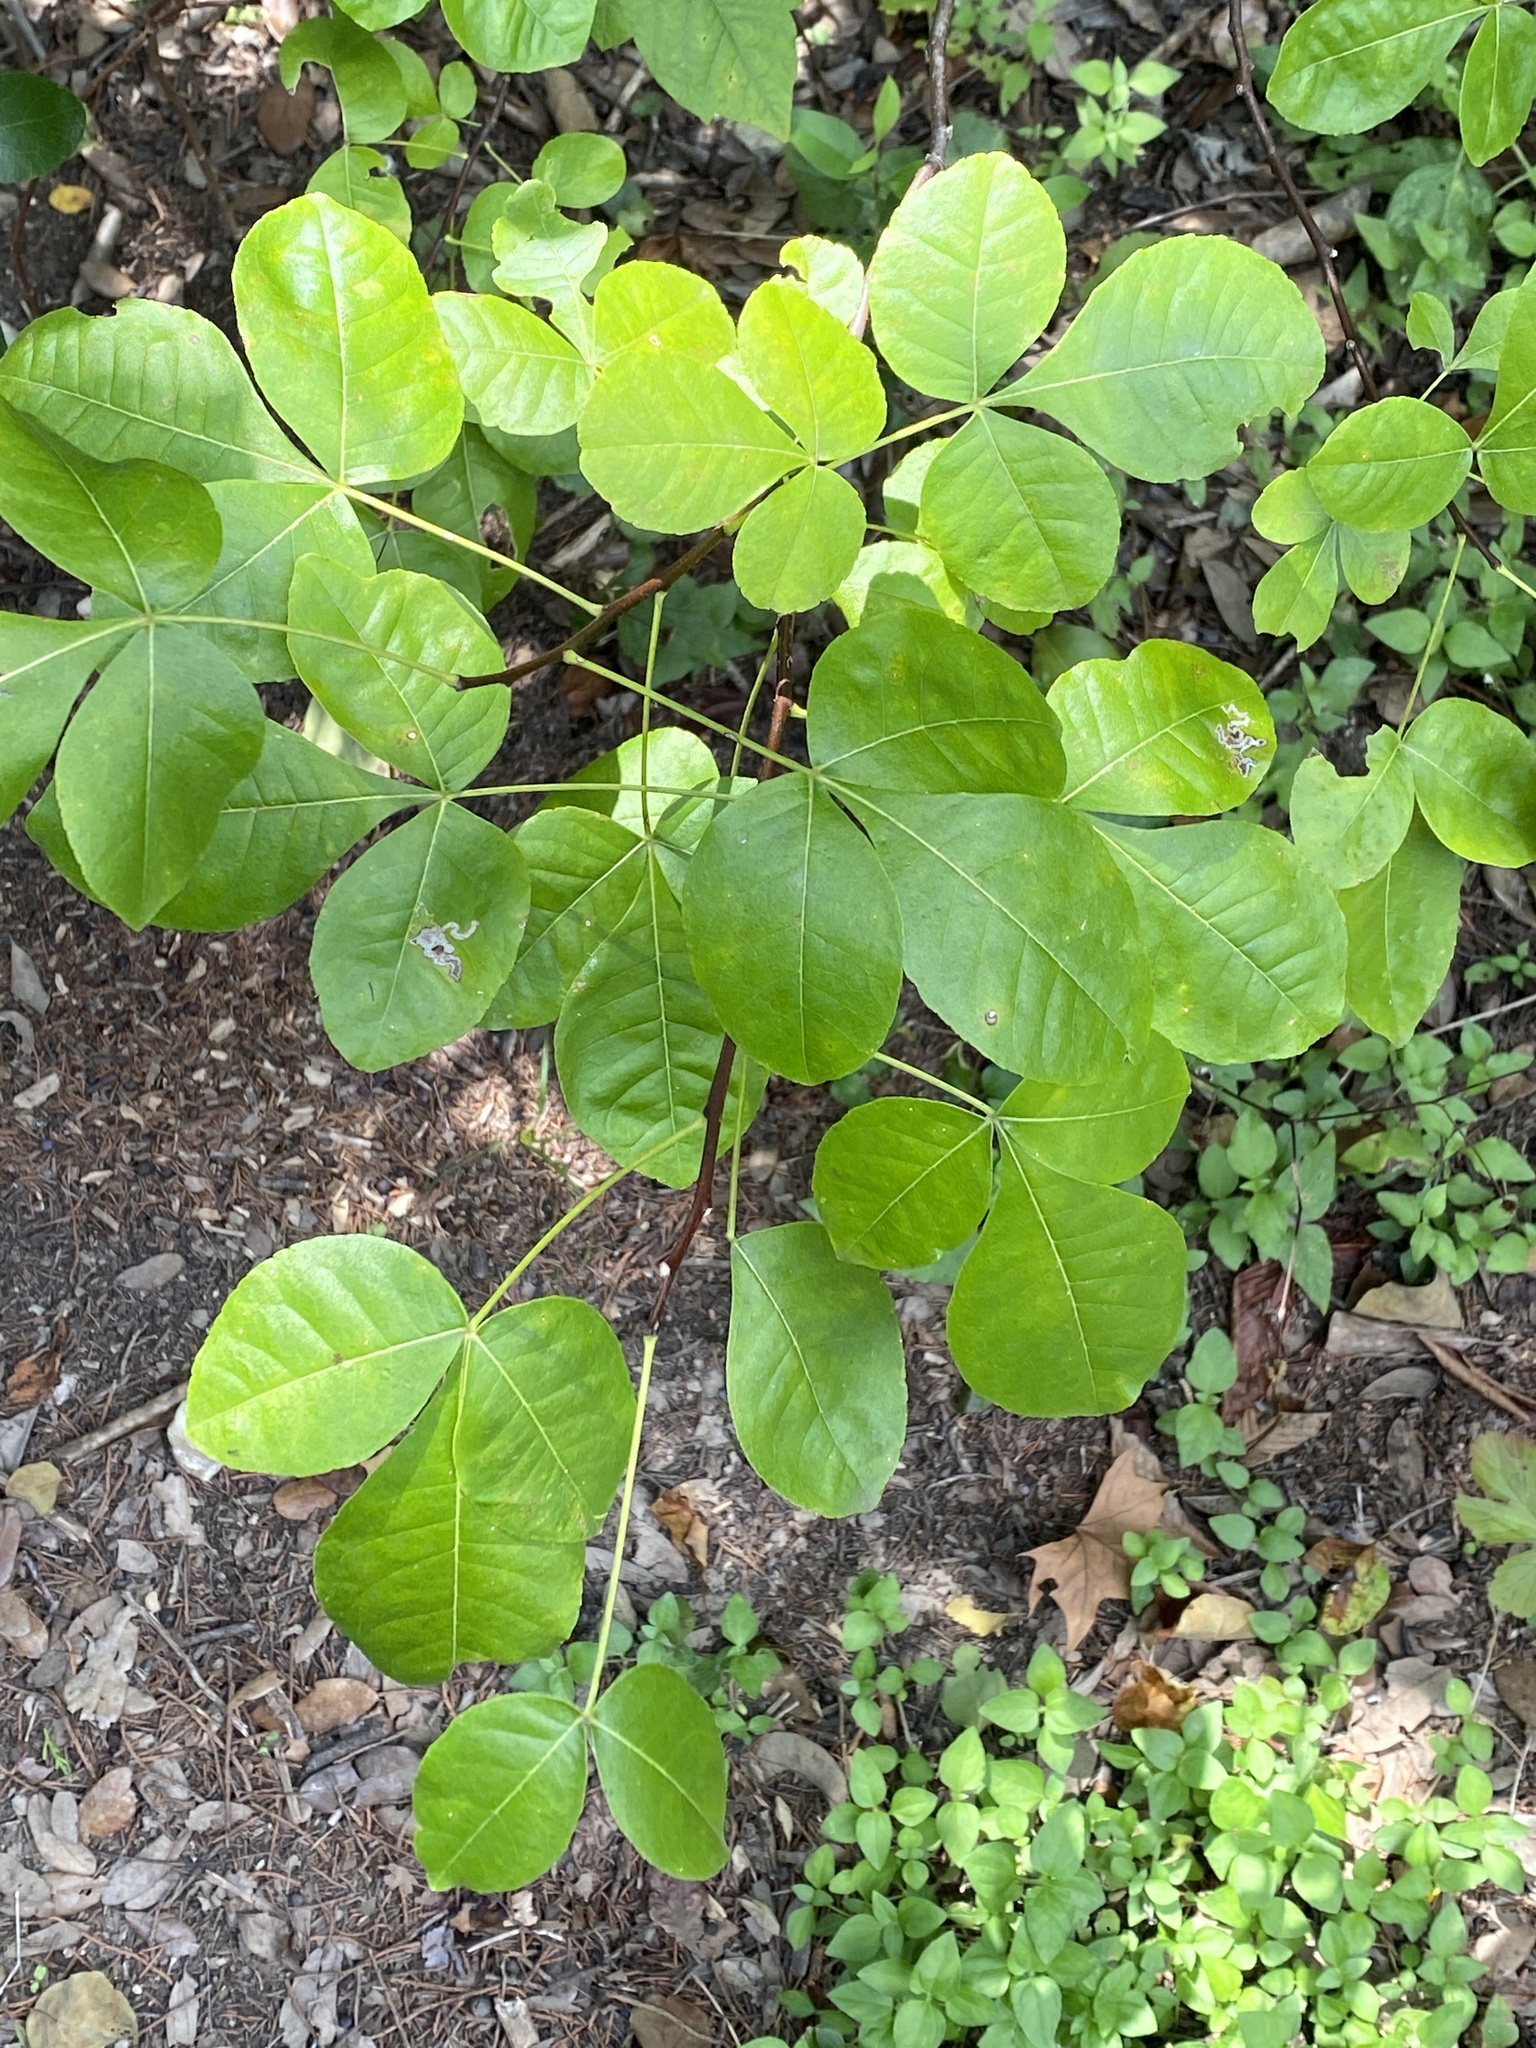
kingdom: Plantae
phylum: Tracheophyta
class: Magnoliopsida
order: Sapindales
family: Rutaceae
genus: Ptelea
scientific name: Ptelea trifoliata
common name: Common hop-tree
